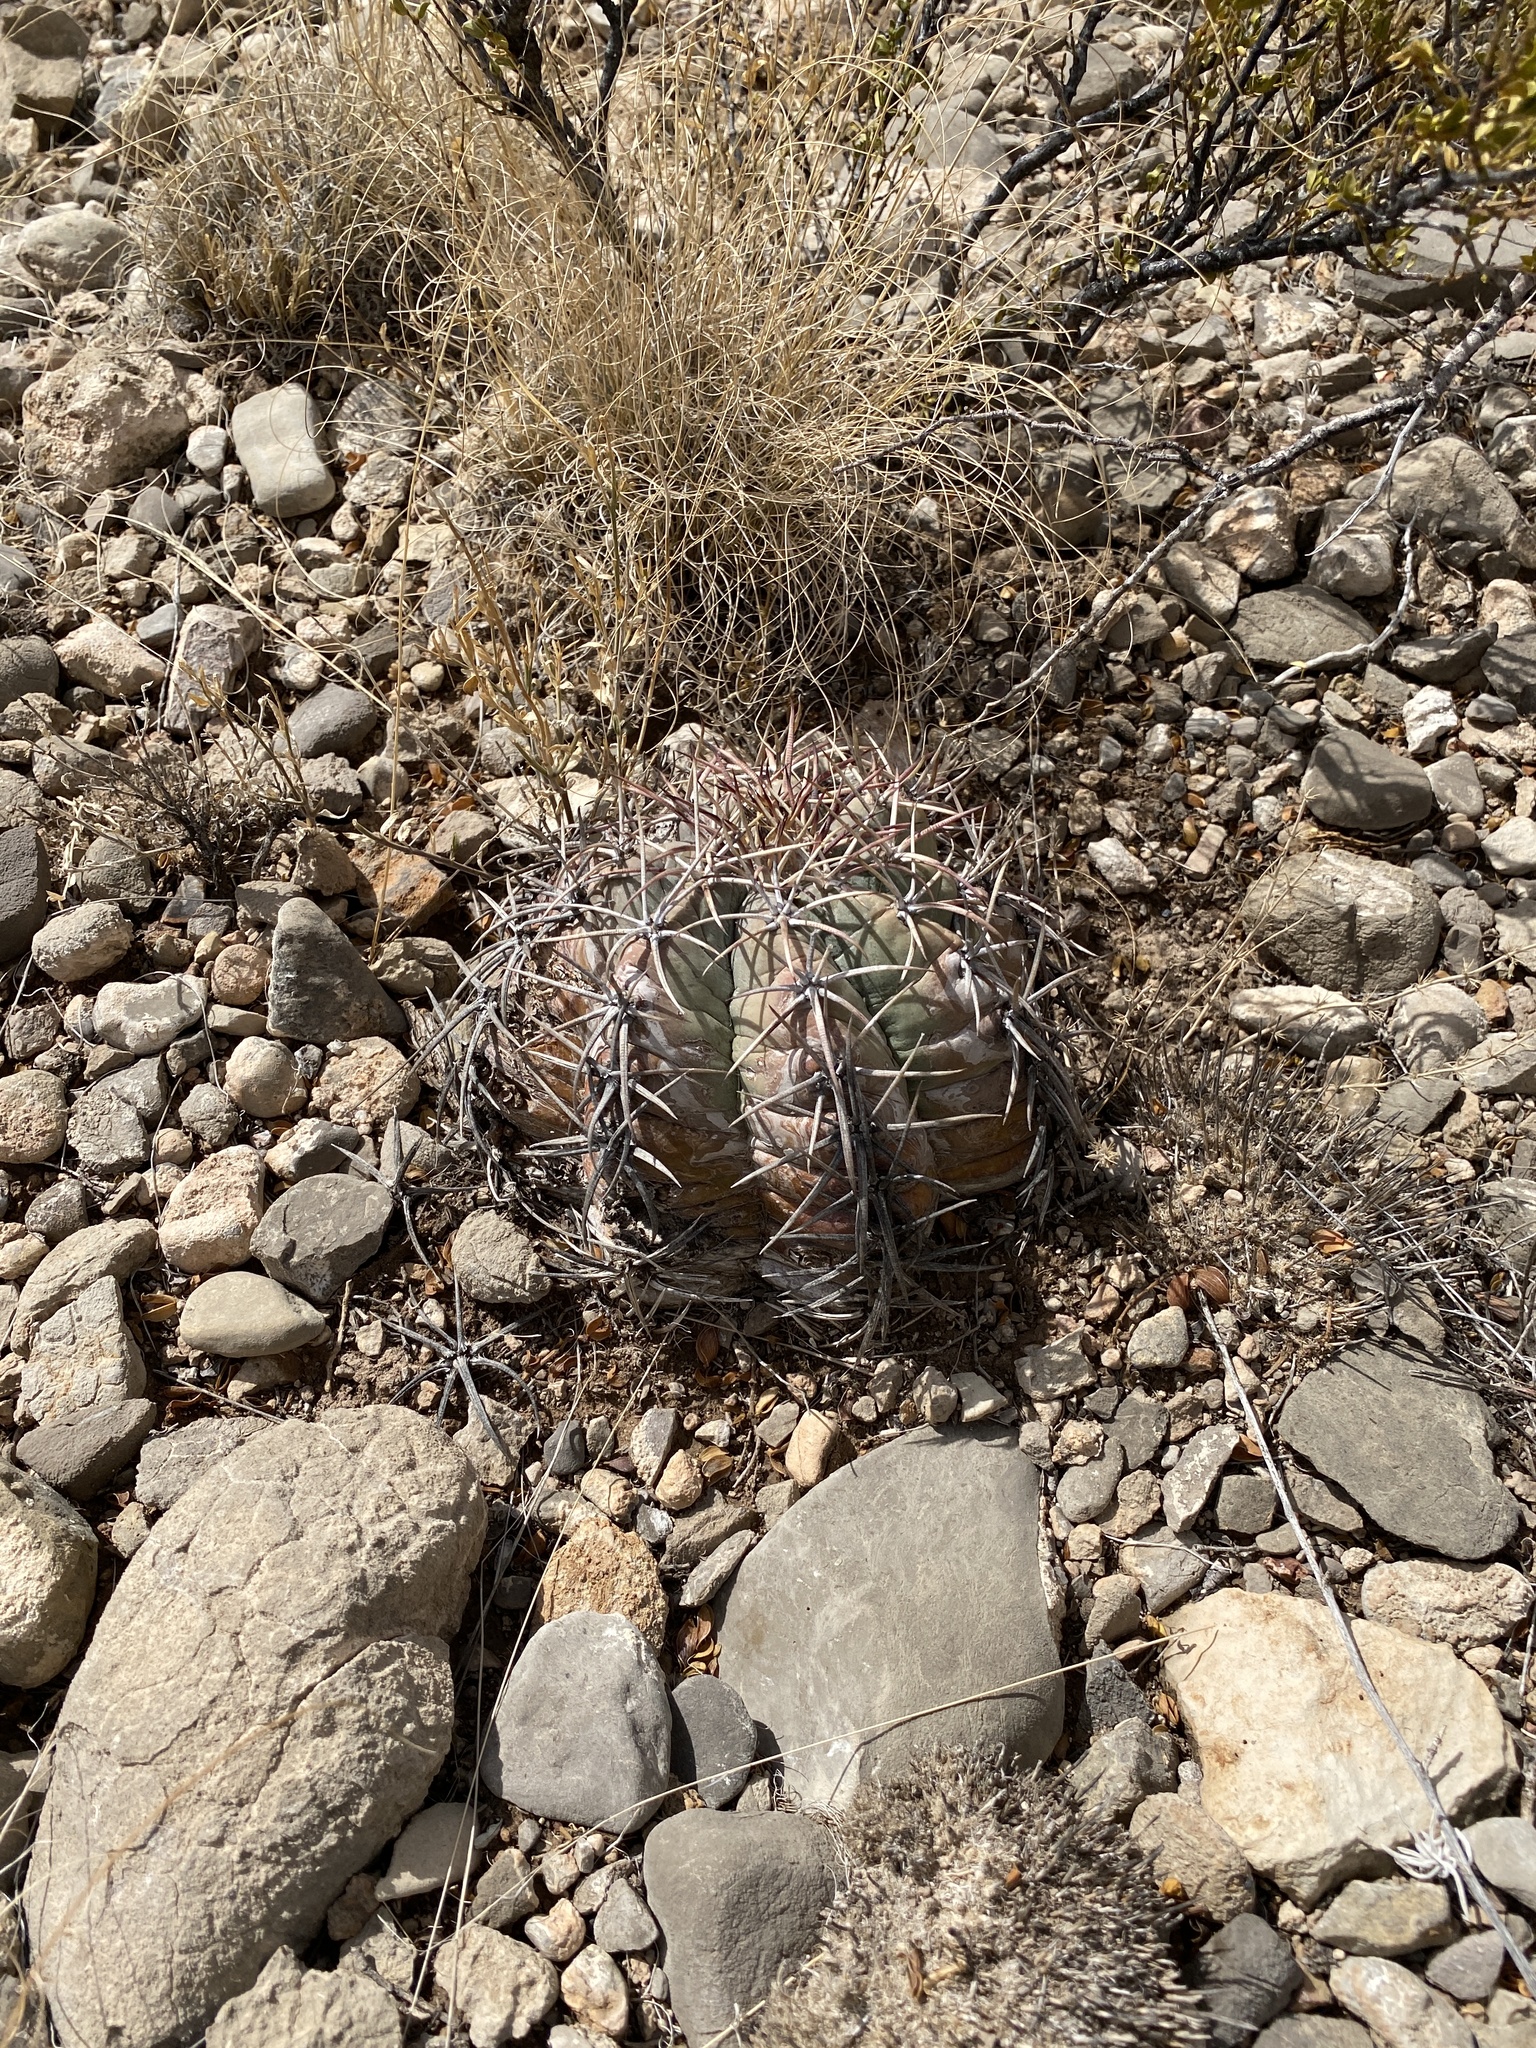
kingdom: Plantae
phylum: Tracheophyta
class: Magnoliopsida
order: Caryophyllales
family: Cactaceae
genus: Echinocactus
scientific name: Echinocactus horizonthalonius
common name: Devilshead
